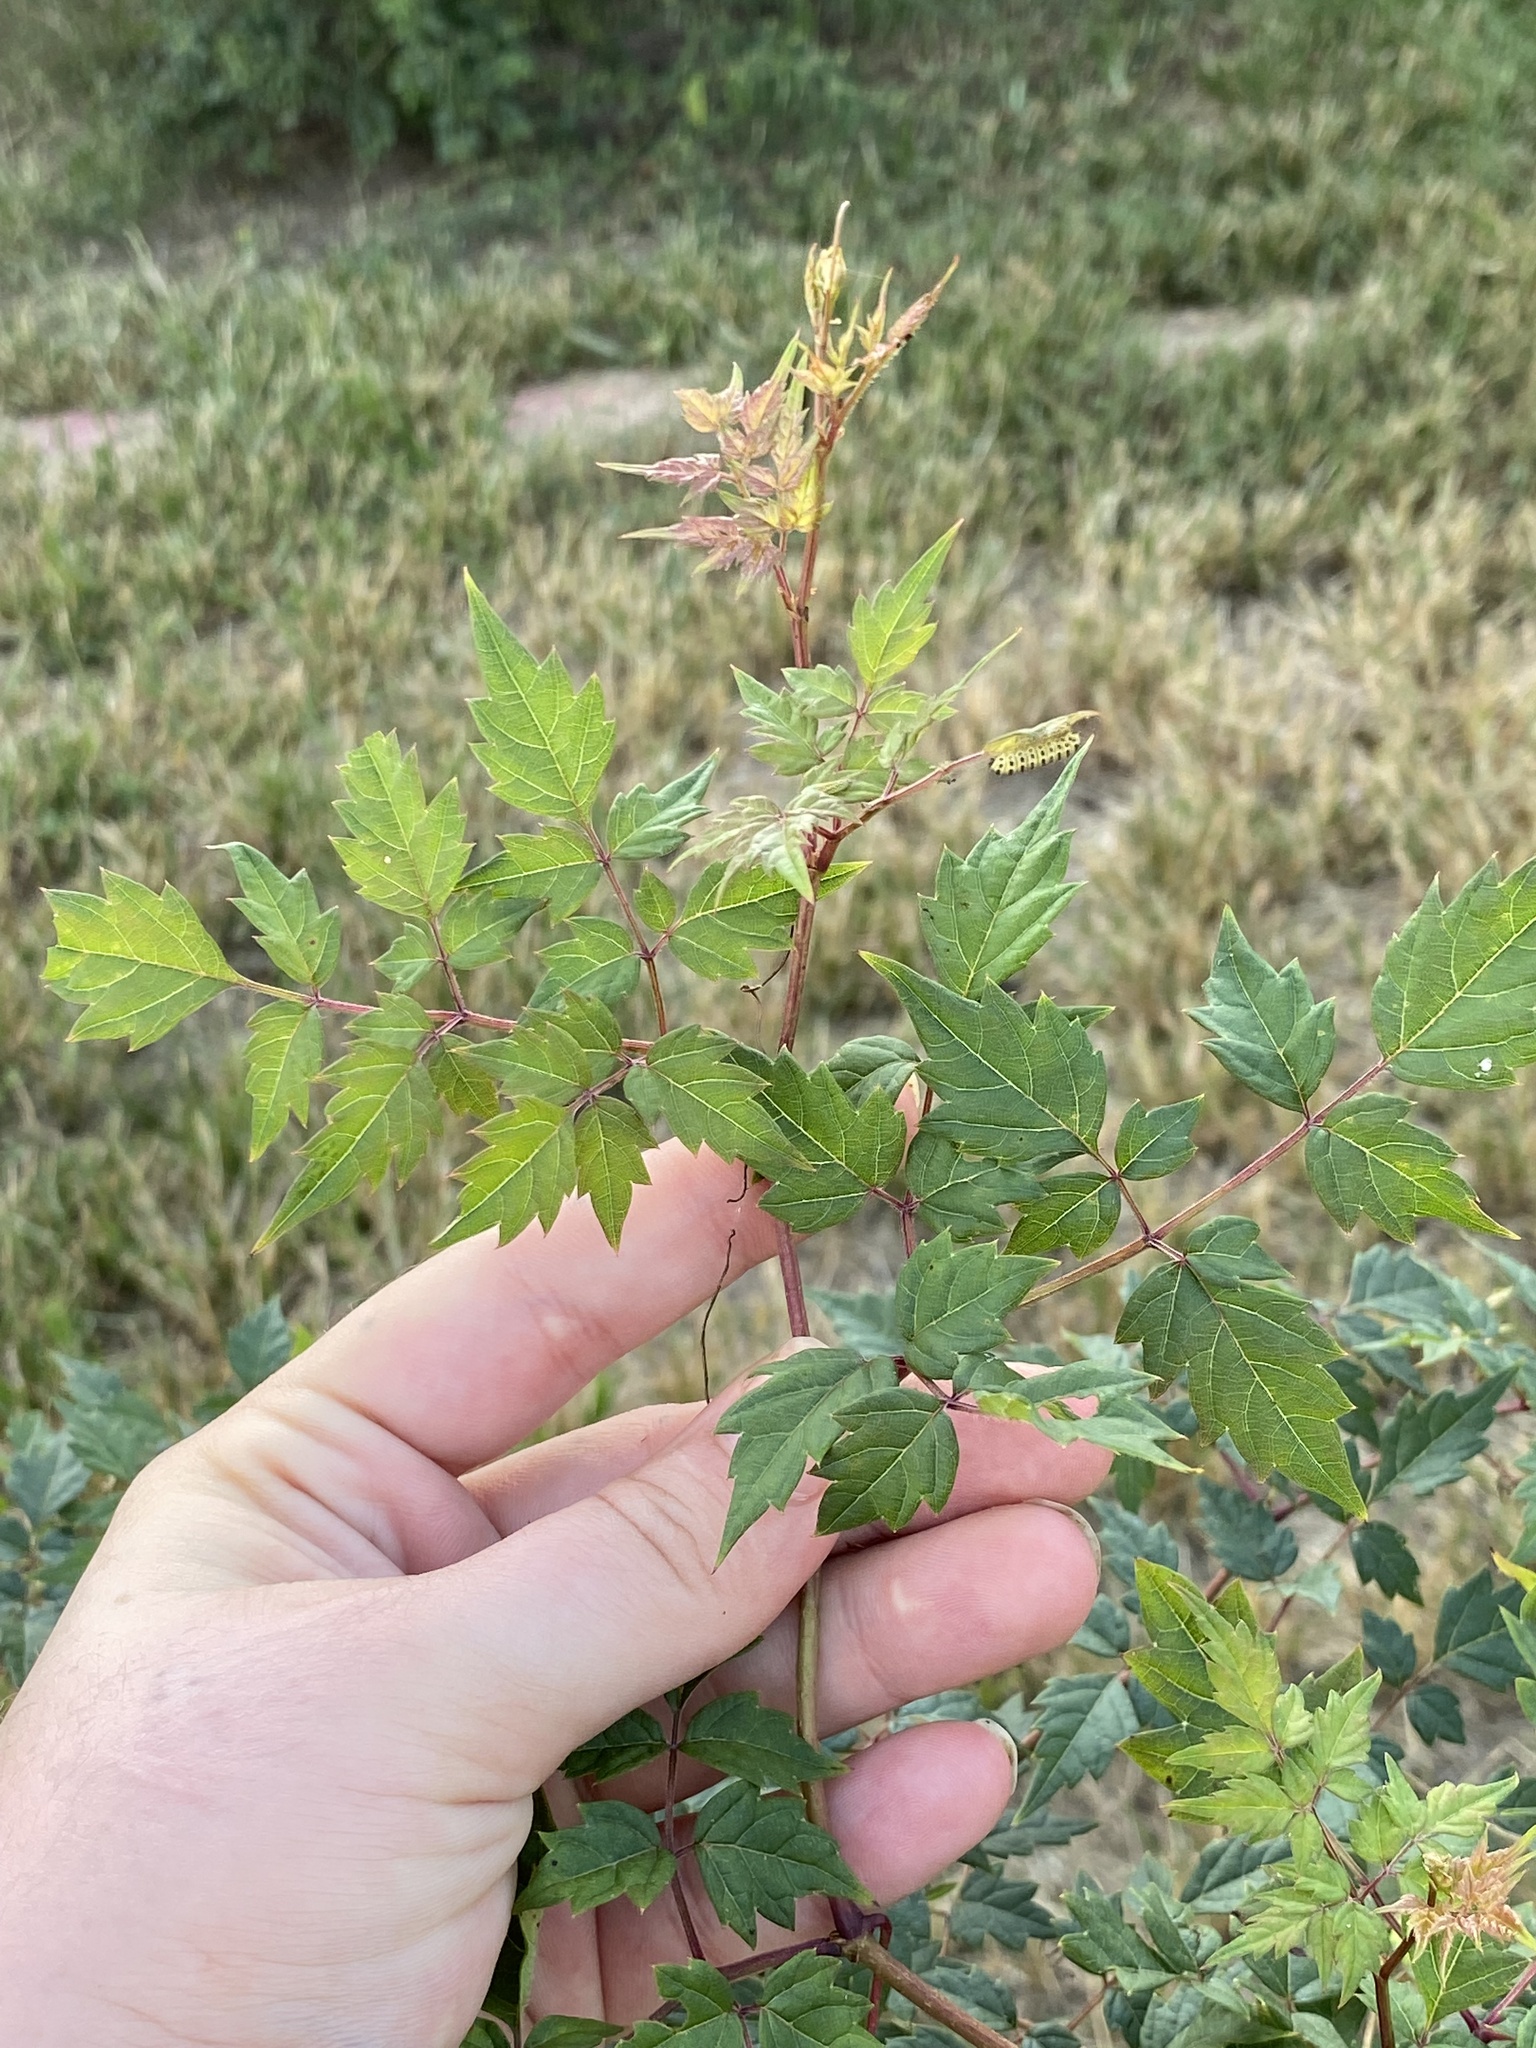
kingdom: Plantae
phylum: Tracheophyta
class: Magnoliopsida
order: Vitales
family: Vitaceae
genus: Nekemias
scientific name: Nekemias arborea
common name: Peppervine
